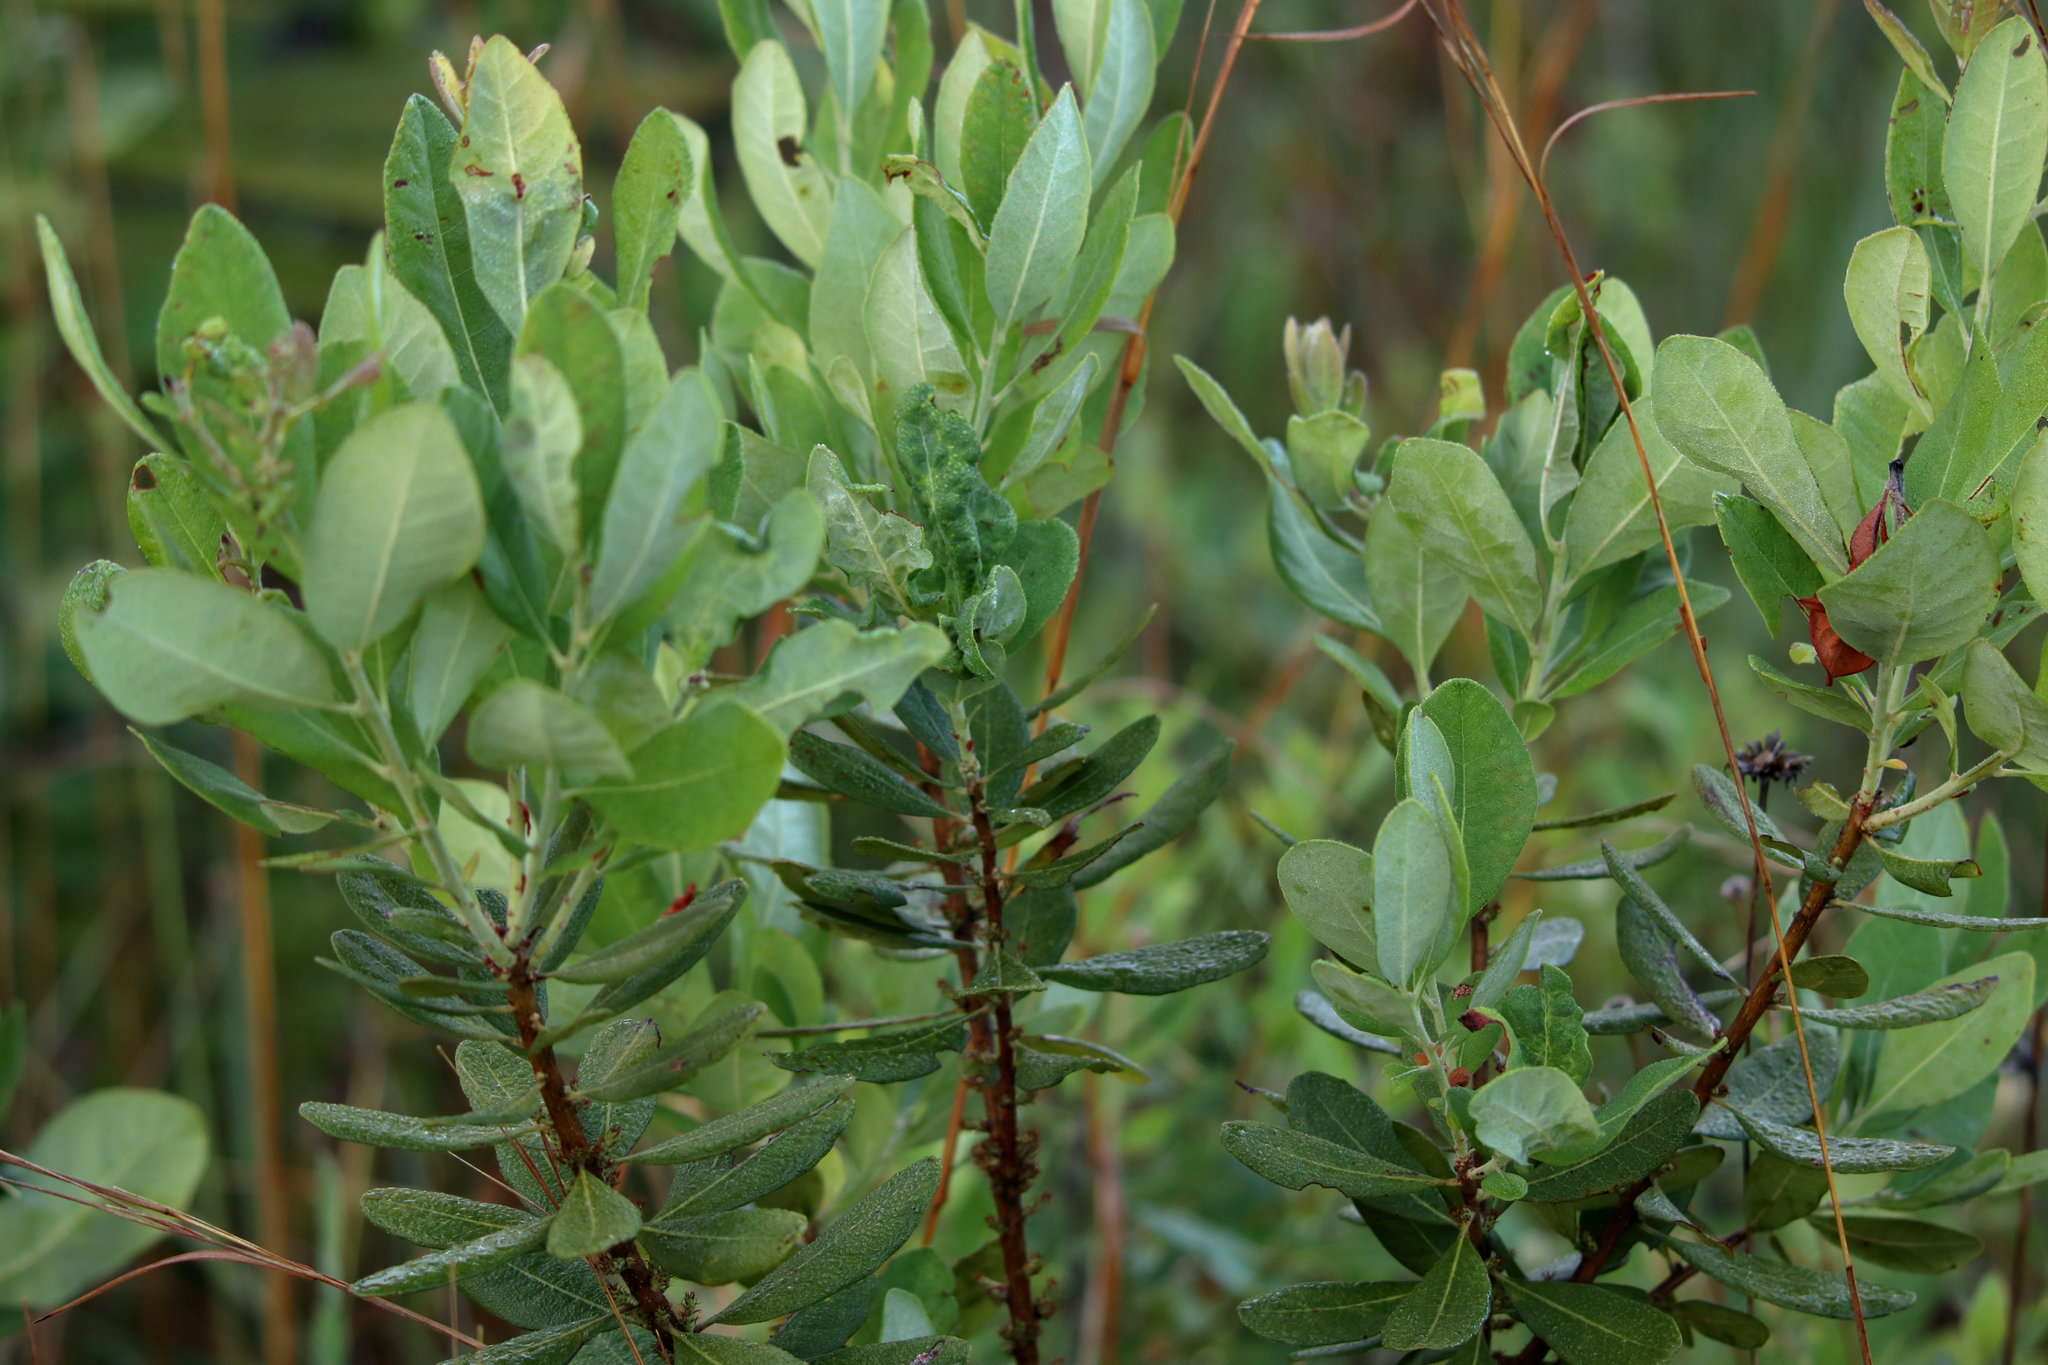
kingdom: Plantae
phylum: Tracheophyta
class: Magnoliopsida
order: Fagales
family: Myricaceae
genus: Morella
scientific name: Morella caroliniensis
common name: Evergreen bayberry
